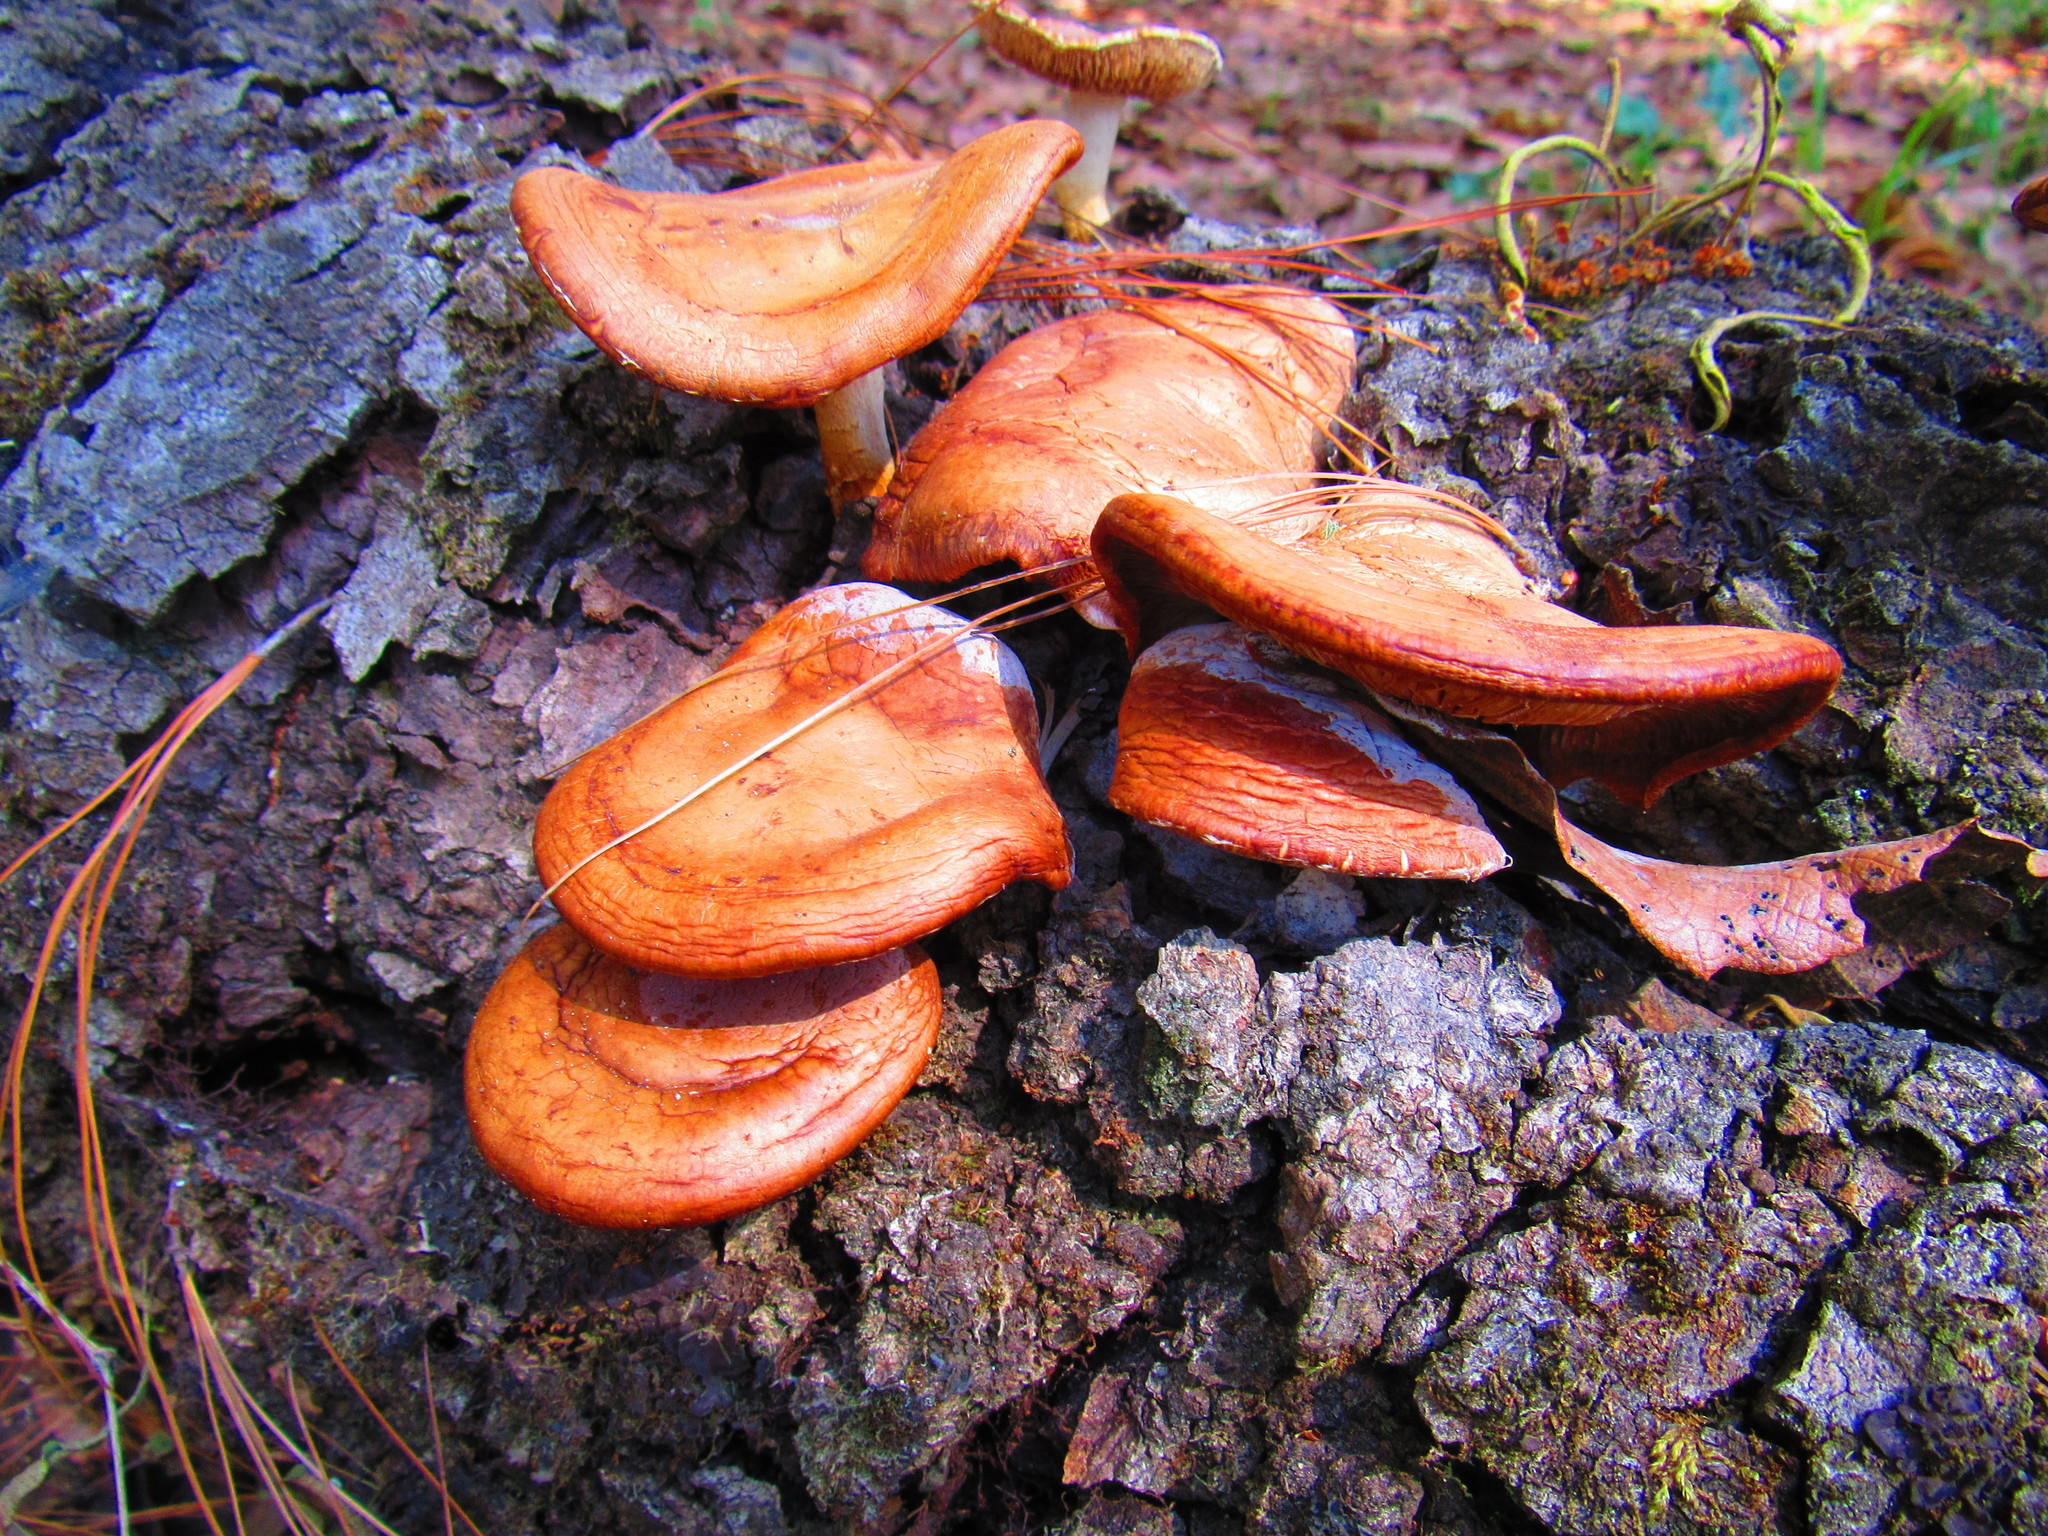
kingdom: Fungi
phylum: Basidiomycota
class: Agaricomycetes
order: Agaricales
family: Mycenaceae
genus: Heimiomyces
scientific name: Heimiomyces neovelutipes
